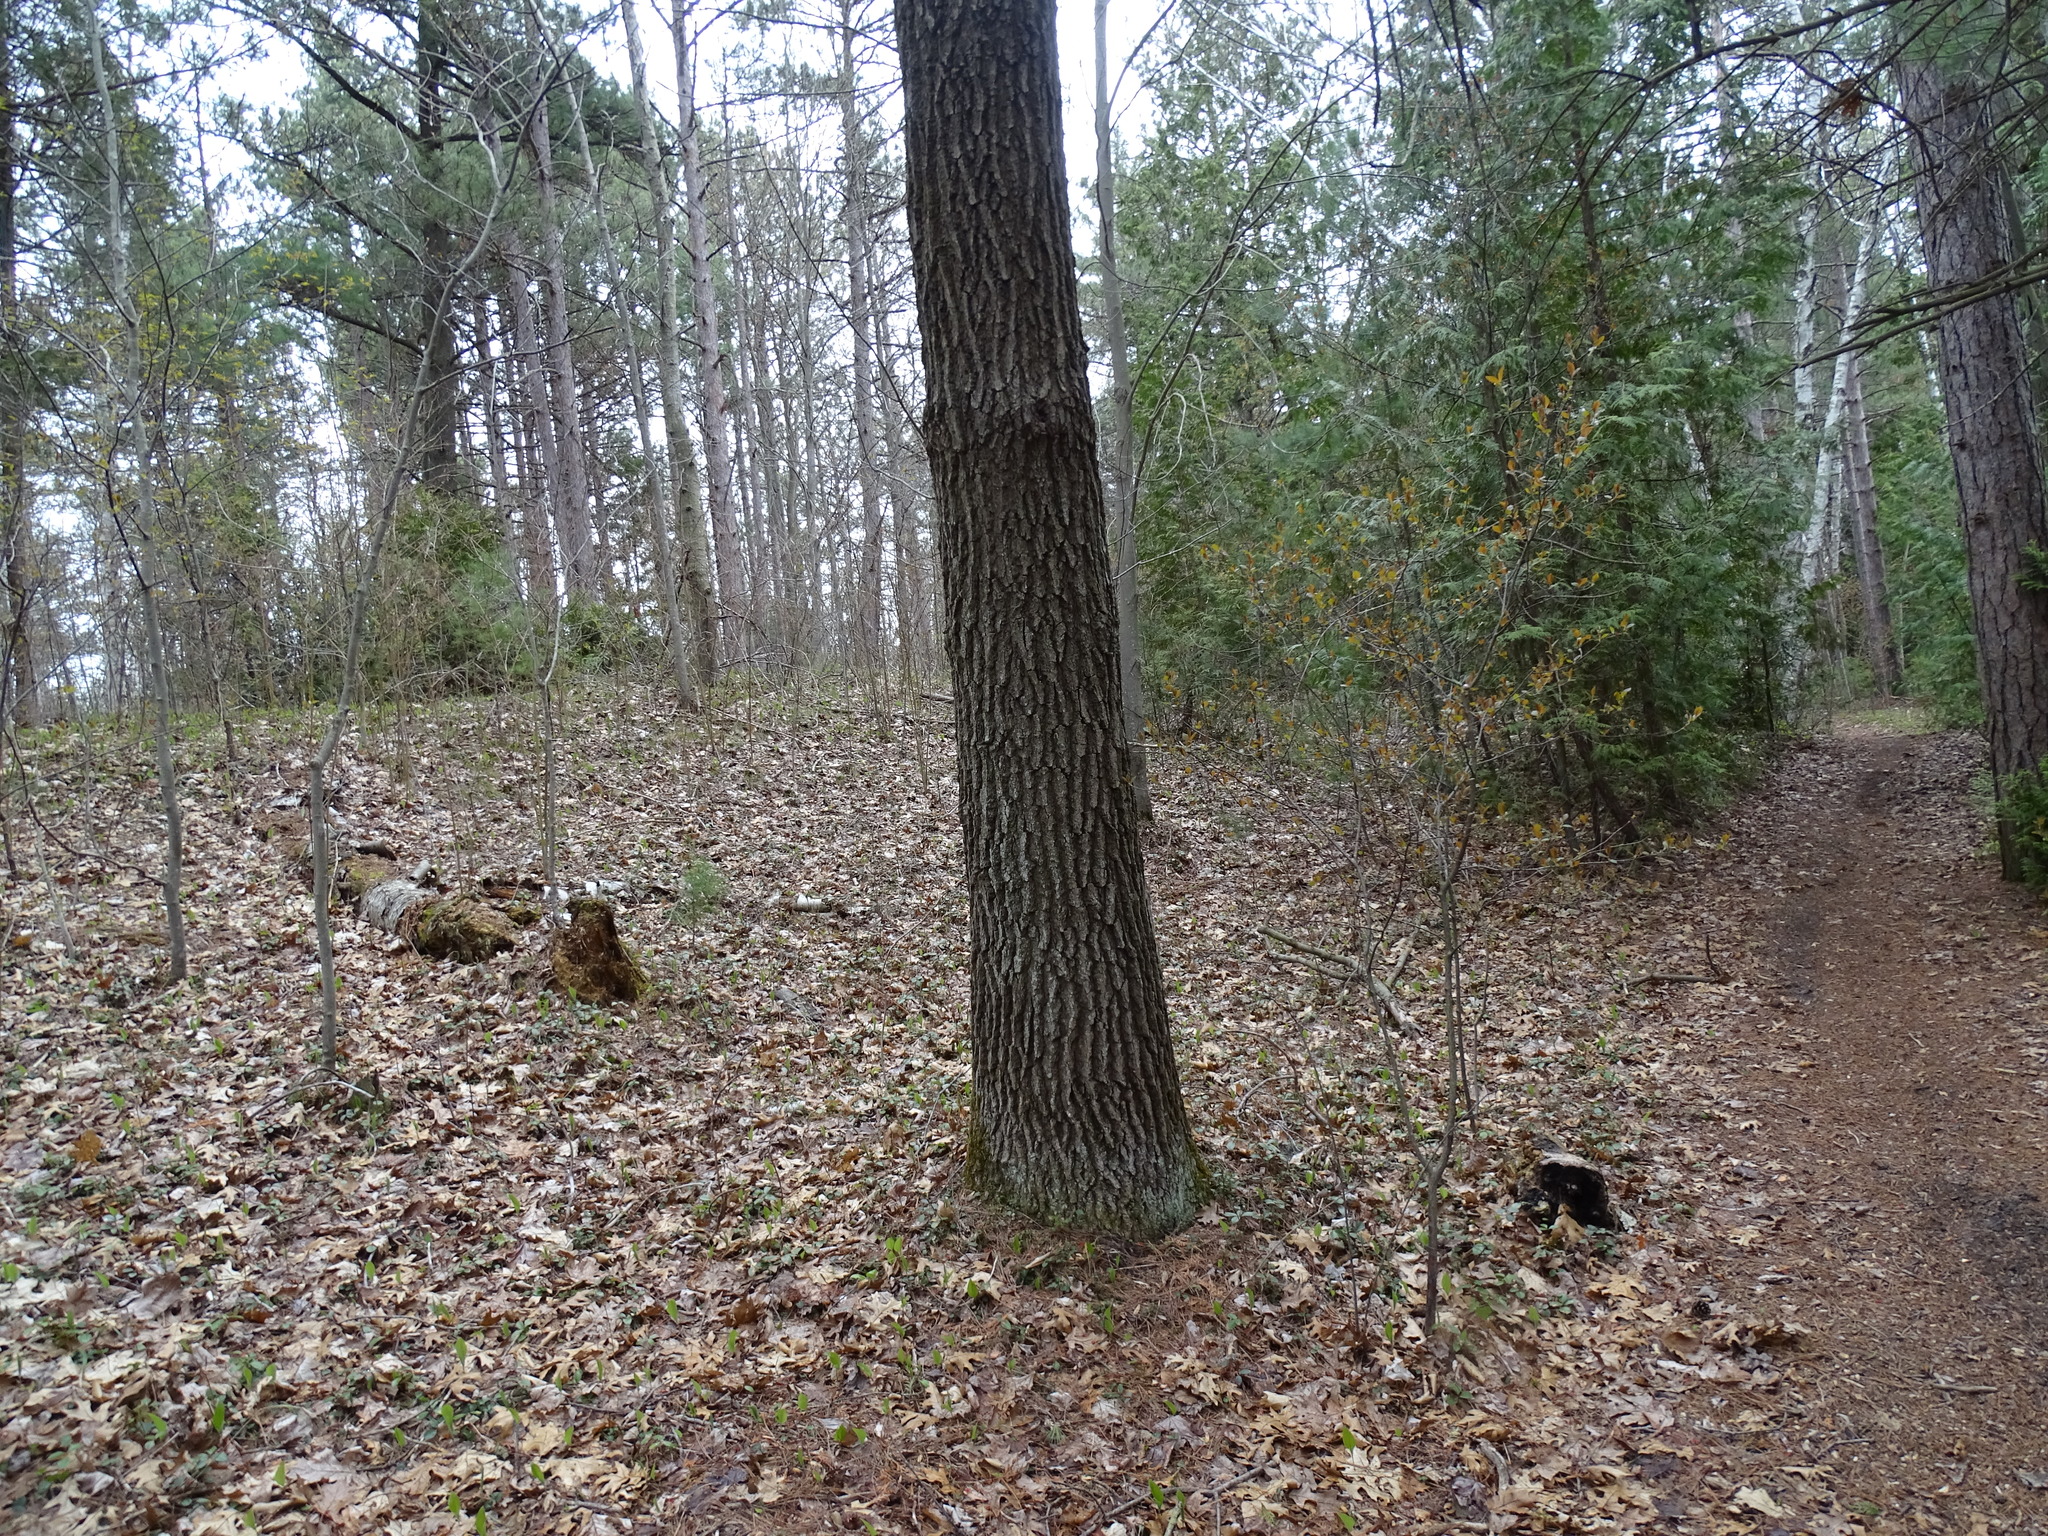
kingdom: Plantae
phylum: Tracheophyta
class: Magnoliopsida
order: Fagales
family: Fagaceae
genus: Quercus
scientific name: Quercus velutina
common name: Black oak
